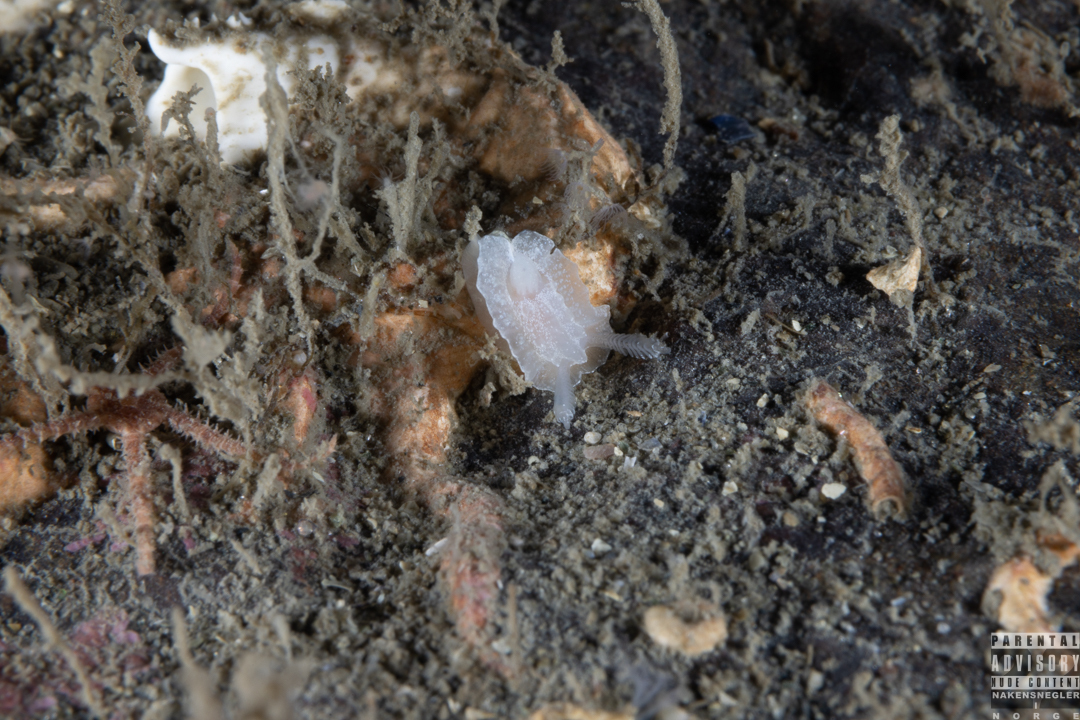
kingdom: Animalia
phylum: Mollusca
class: Gastropoda
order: Nudibranchia
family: Goniodorididae
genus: Okenia
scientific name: Okenia
